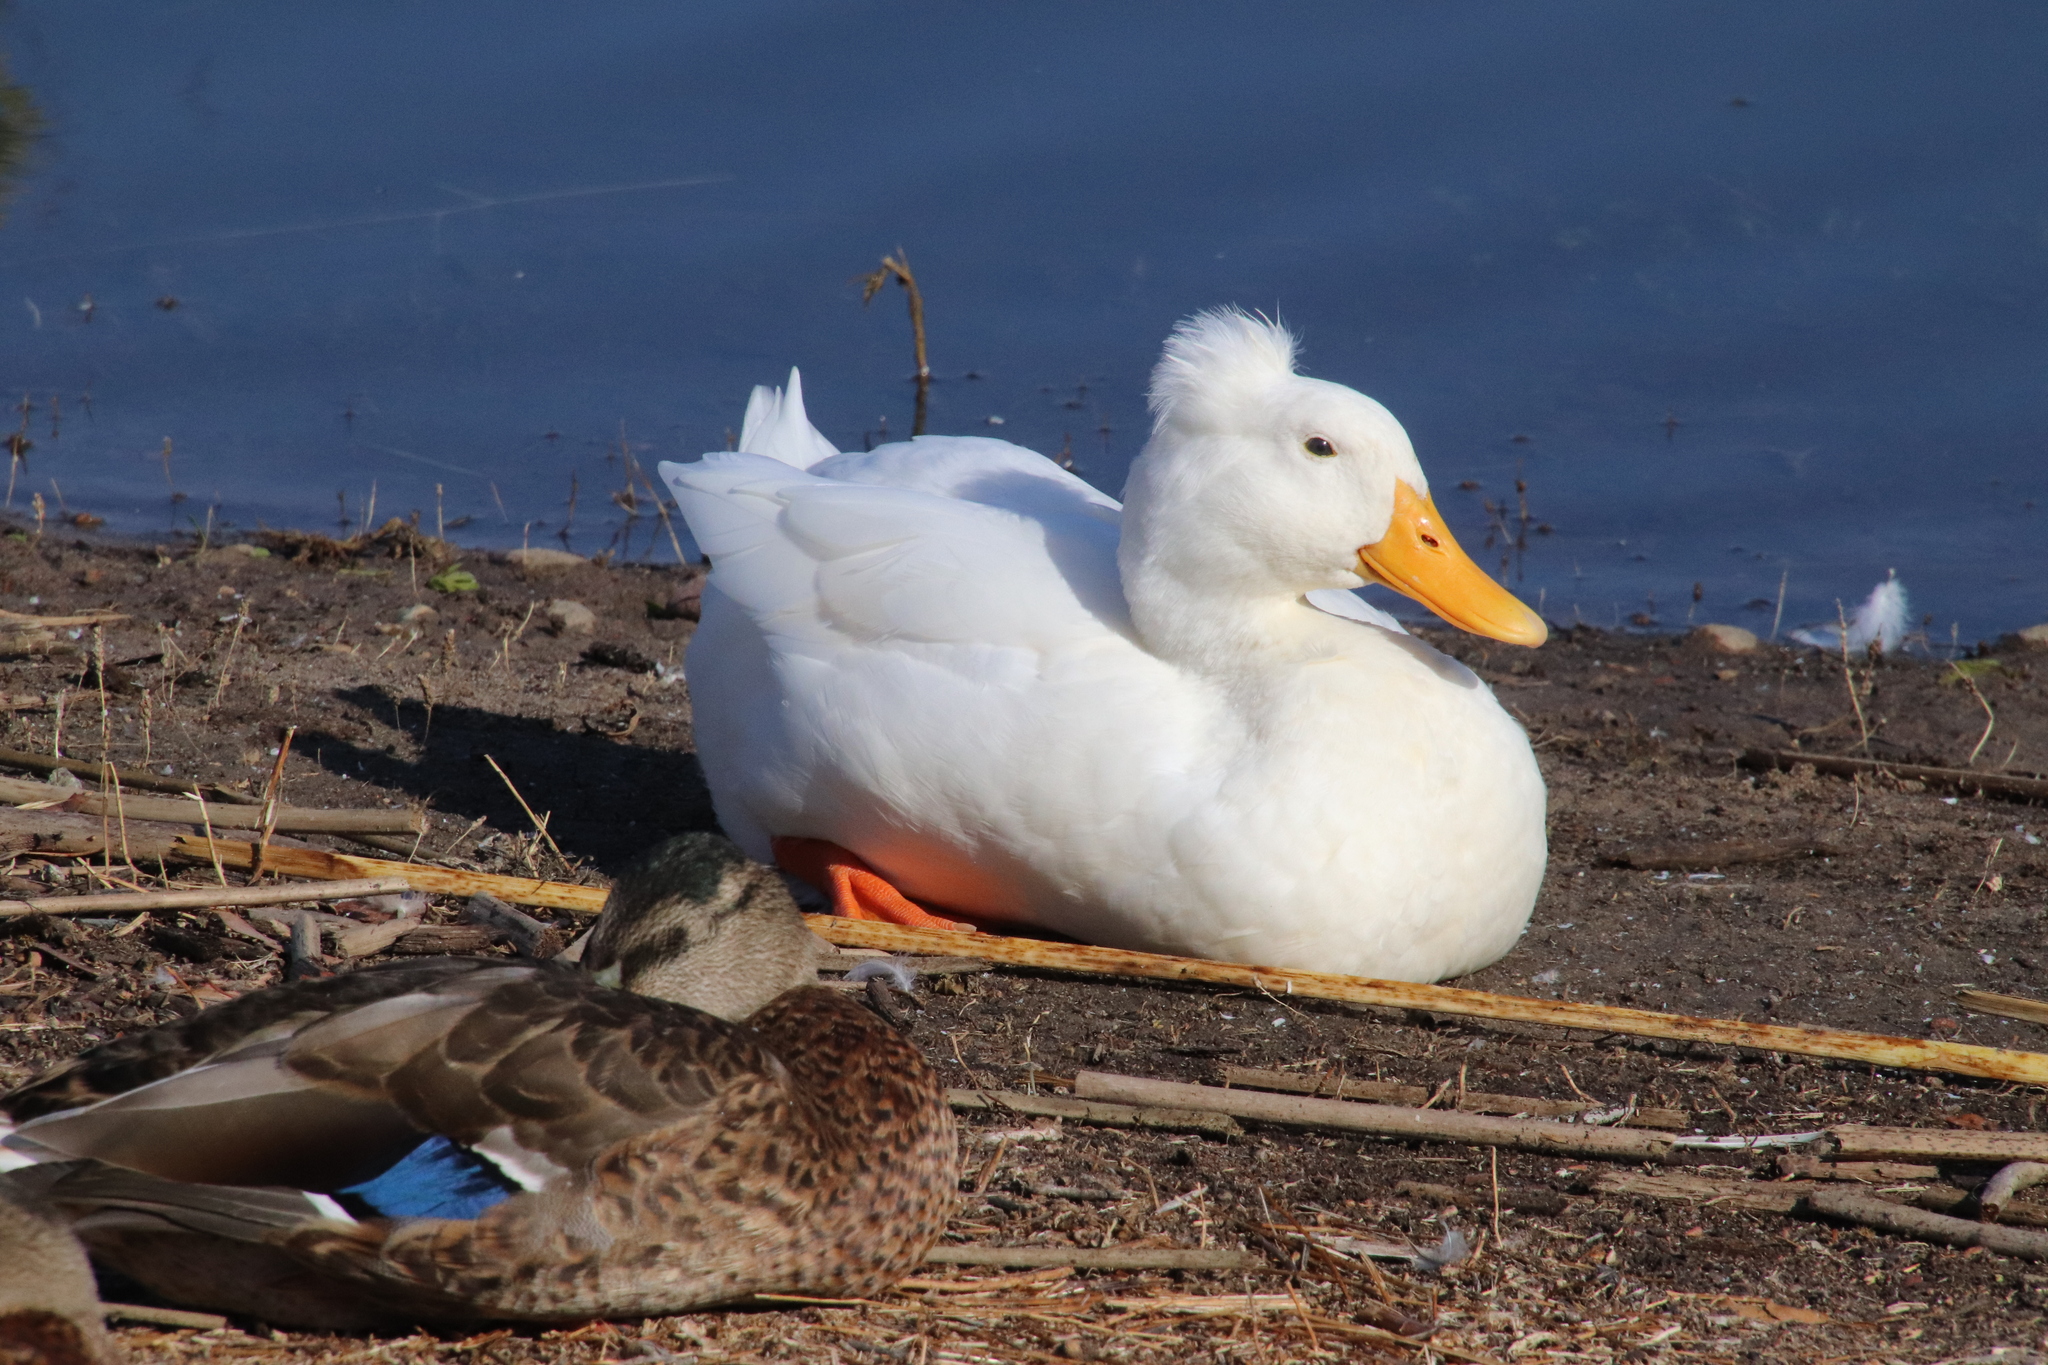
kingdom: Animalia
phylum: Chordata
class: Aves
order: Anseriformes
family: Anatidae
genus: Anas
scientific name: Anas platyrhynchos
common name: Mallard
